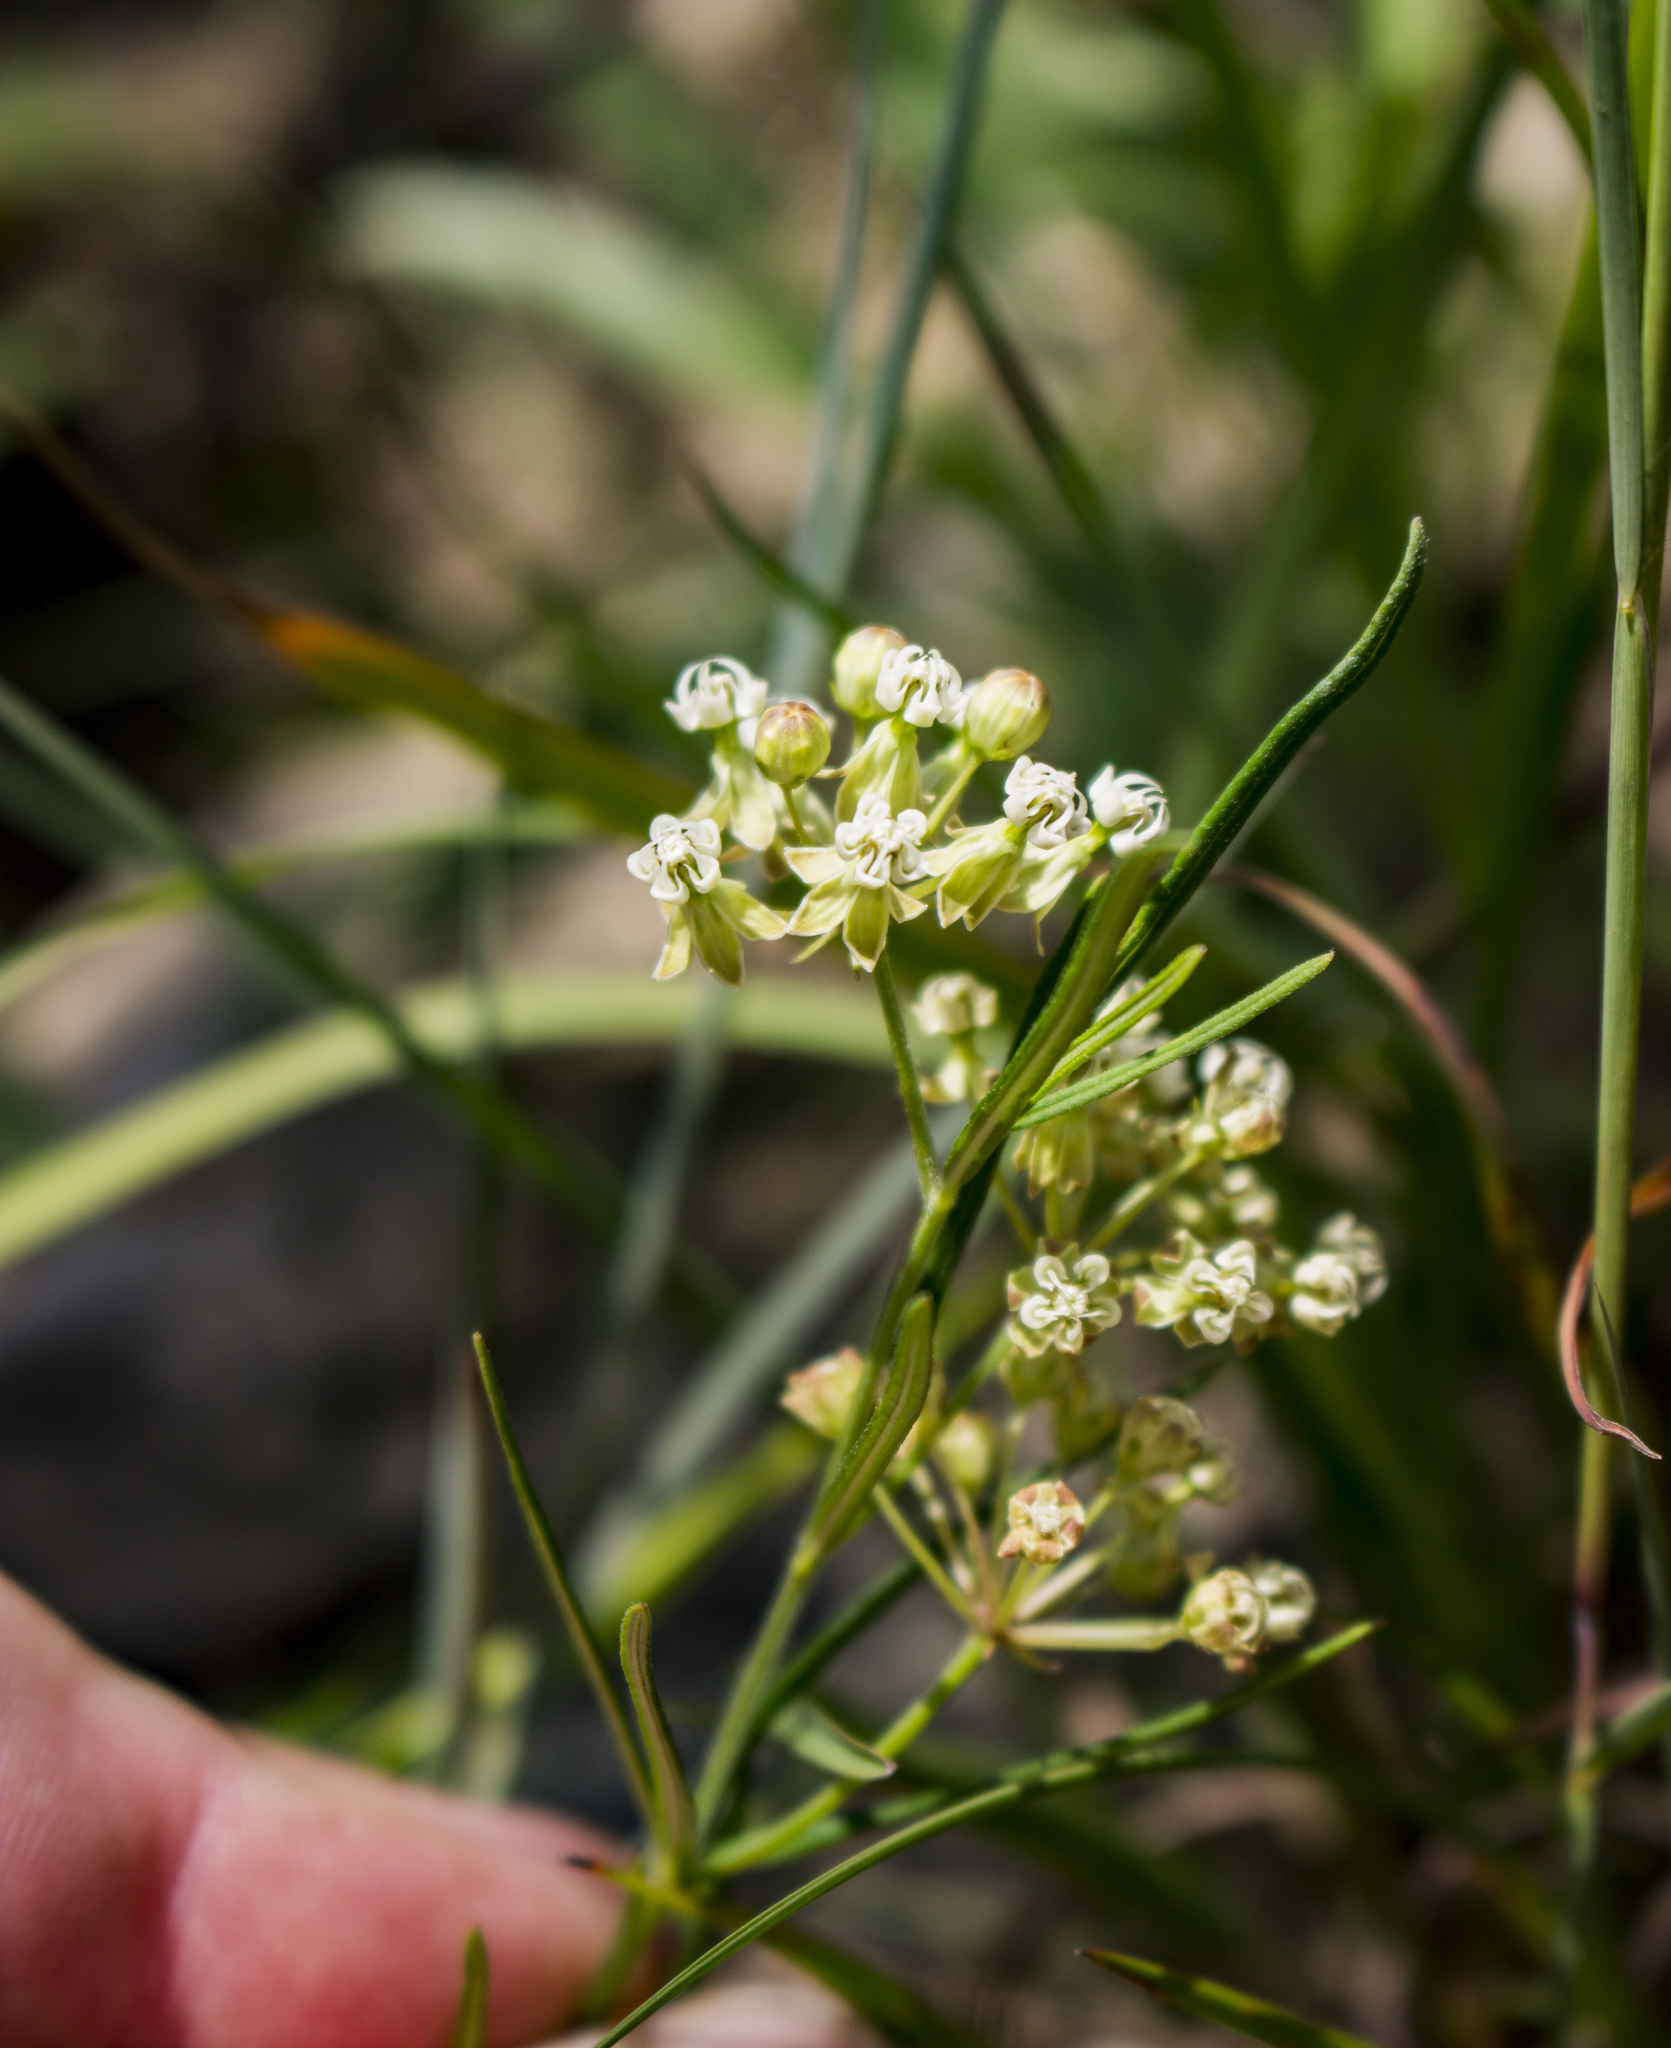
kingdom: Plantae
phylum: Tracheophyta
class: Magnoliopsida
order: Gentianales
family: Apocynaceae
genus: Asclepias
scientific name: Asclepias verticillata
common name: Eastern whorled milkweed
